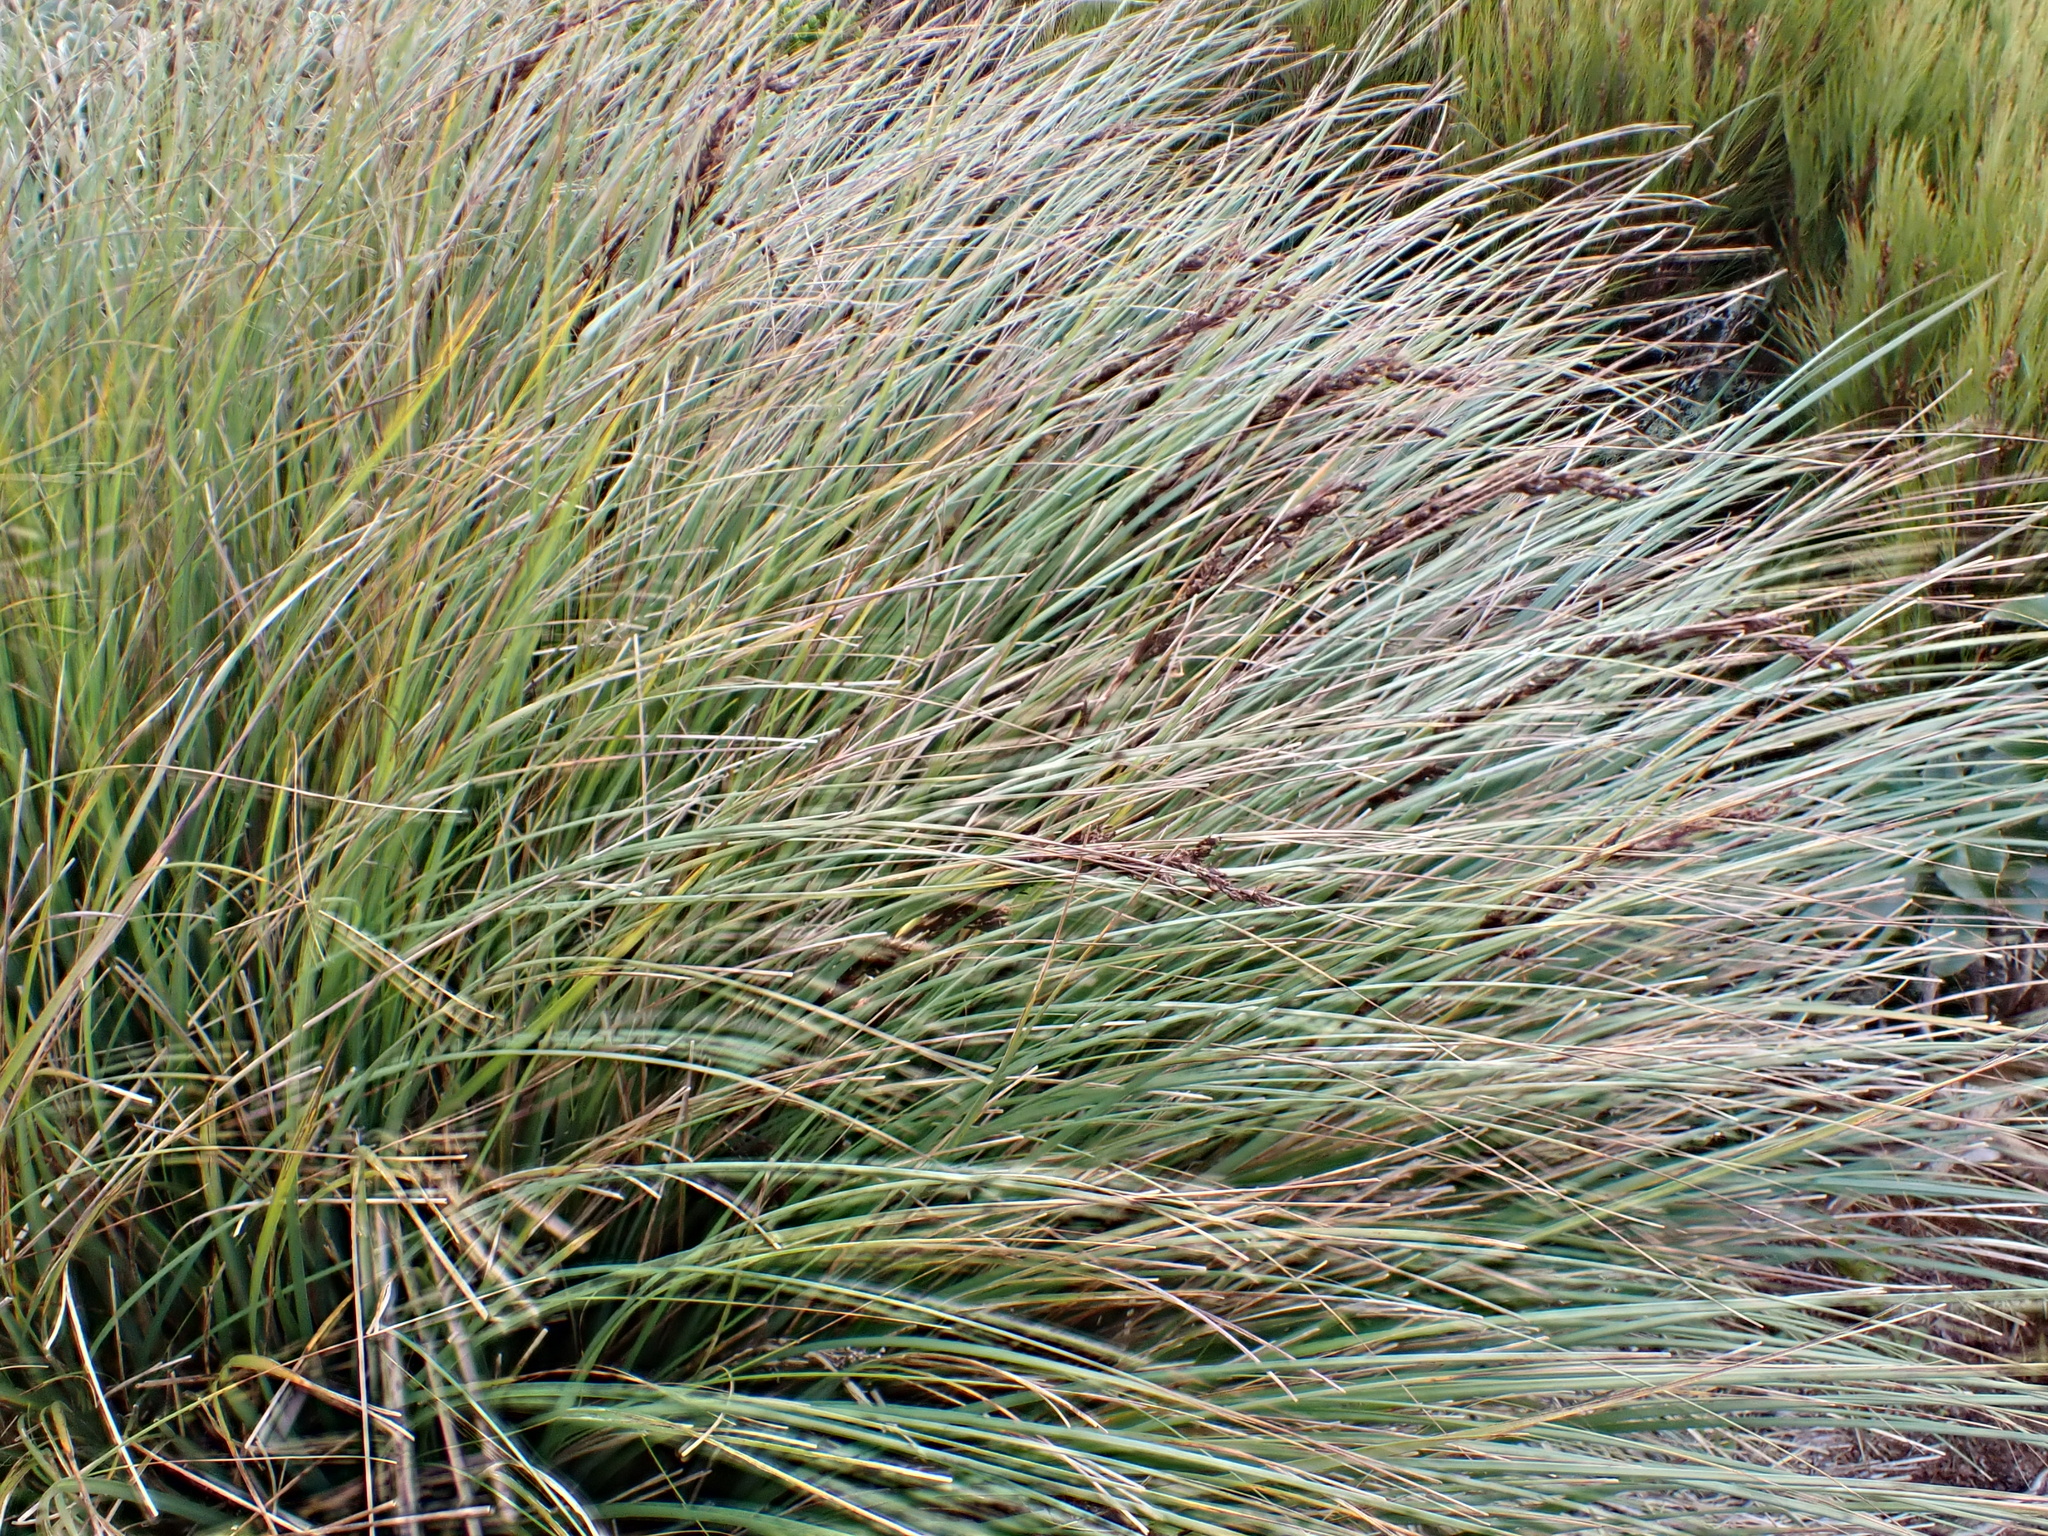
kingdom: Plantae
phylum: Tracheophyta
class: Liliopsida
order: Poales
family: Cyperaceae
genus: Gahnia
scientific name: Gahnia procera
